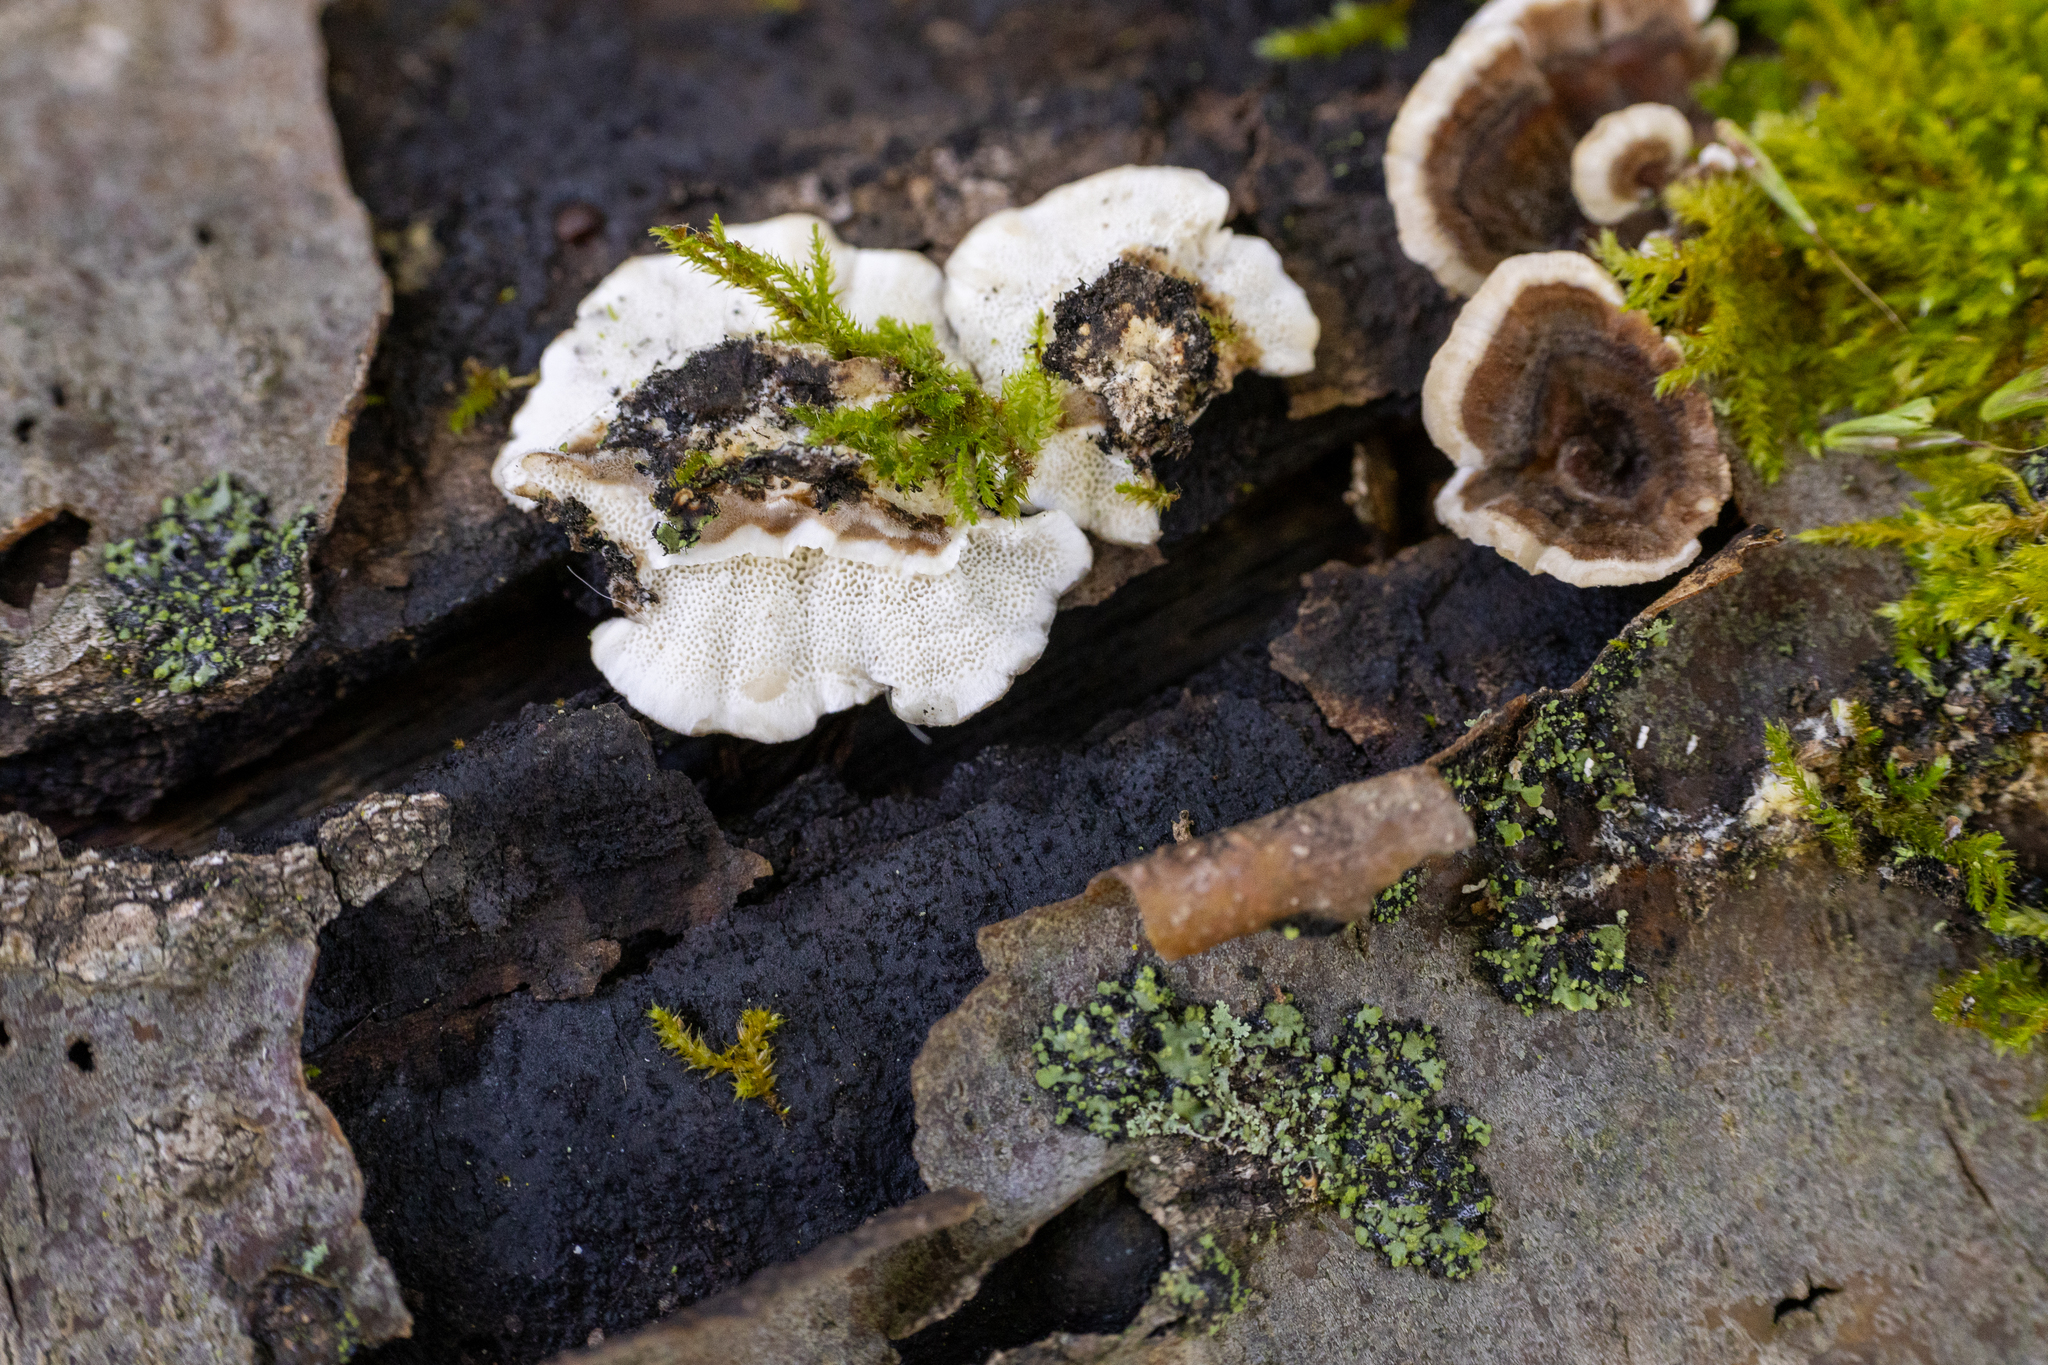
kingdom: Fungi
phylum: Basidiomycota
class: Agaricomycetes
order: Polyporales
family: Polyporaceae
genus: Trametes
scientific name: Trametes versicolor
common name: Turkeytail
